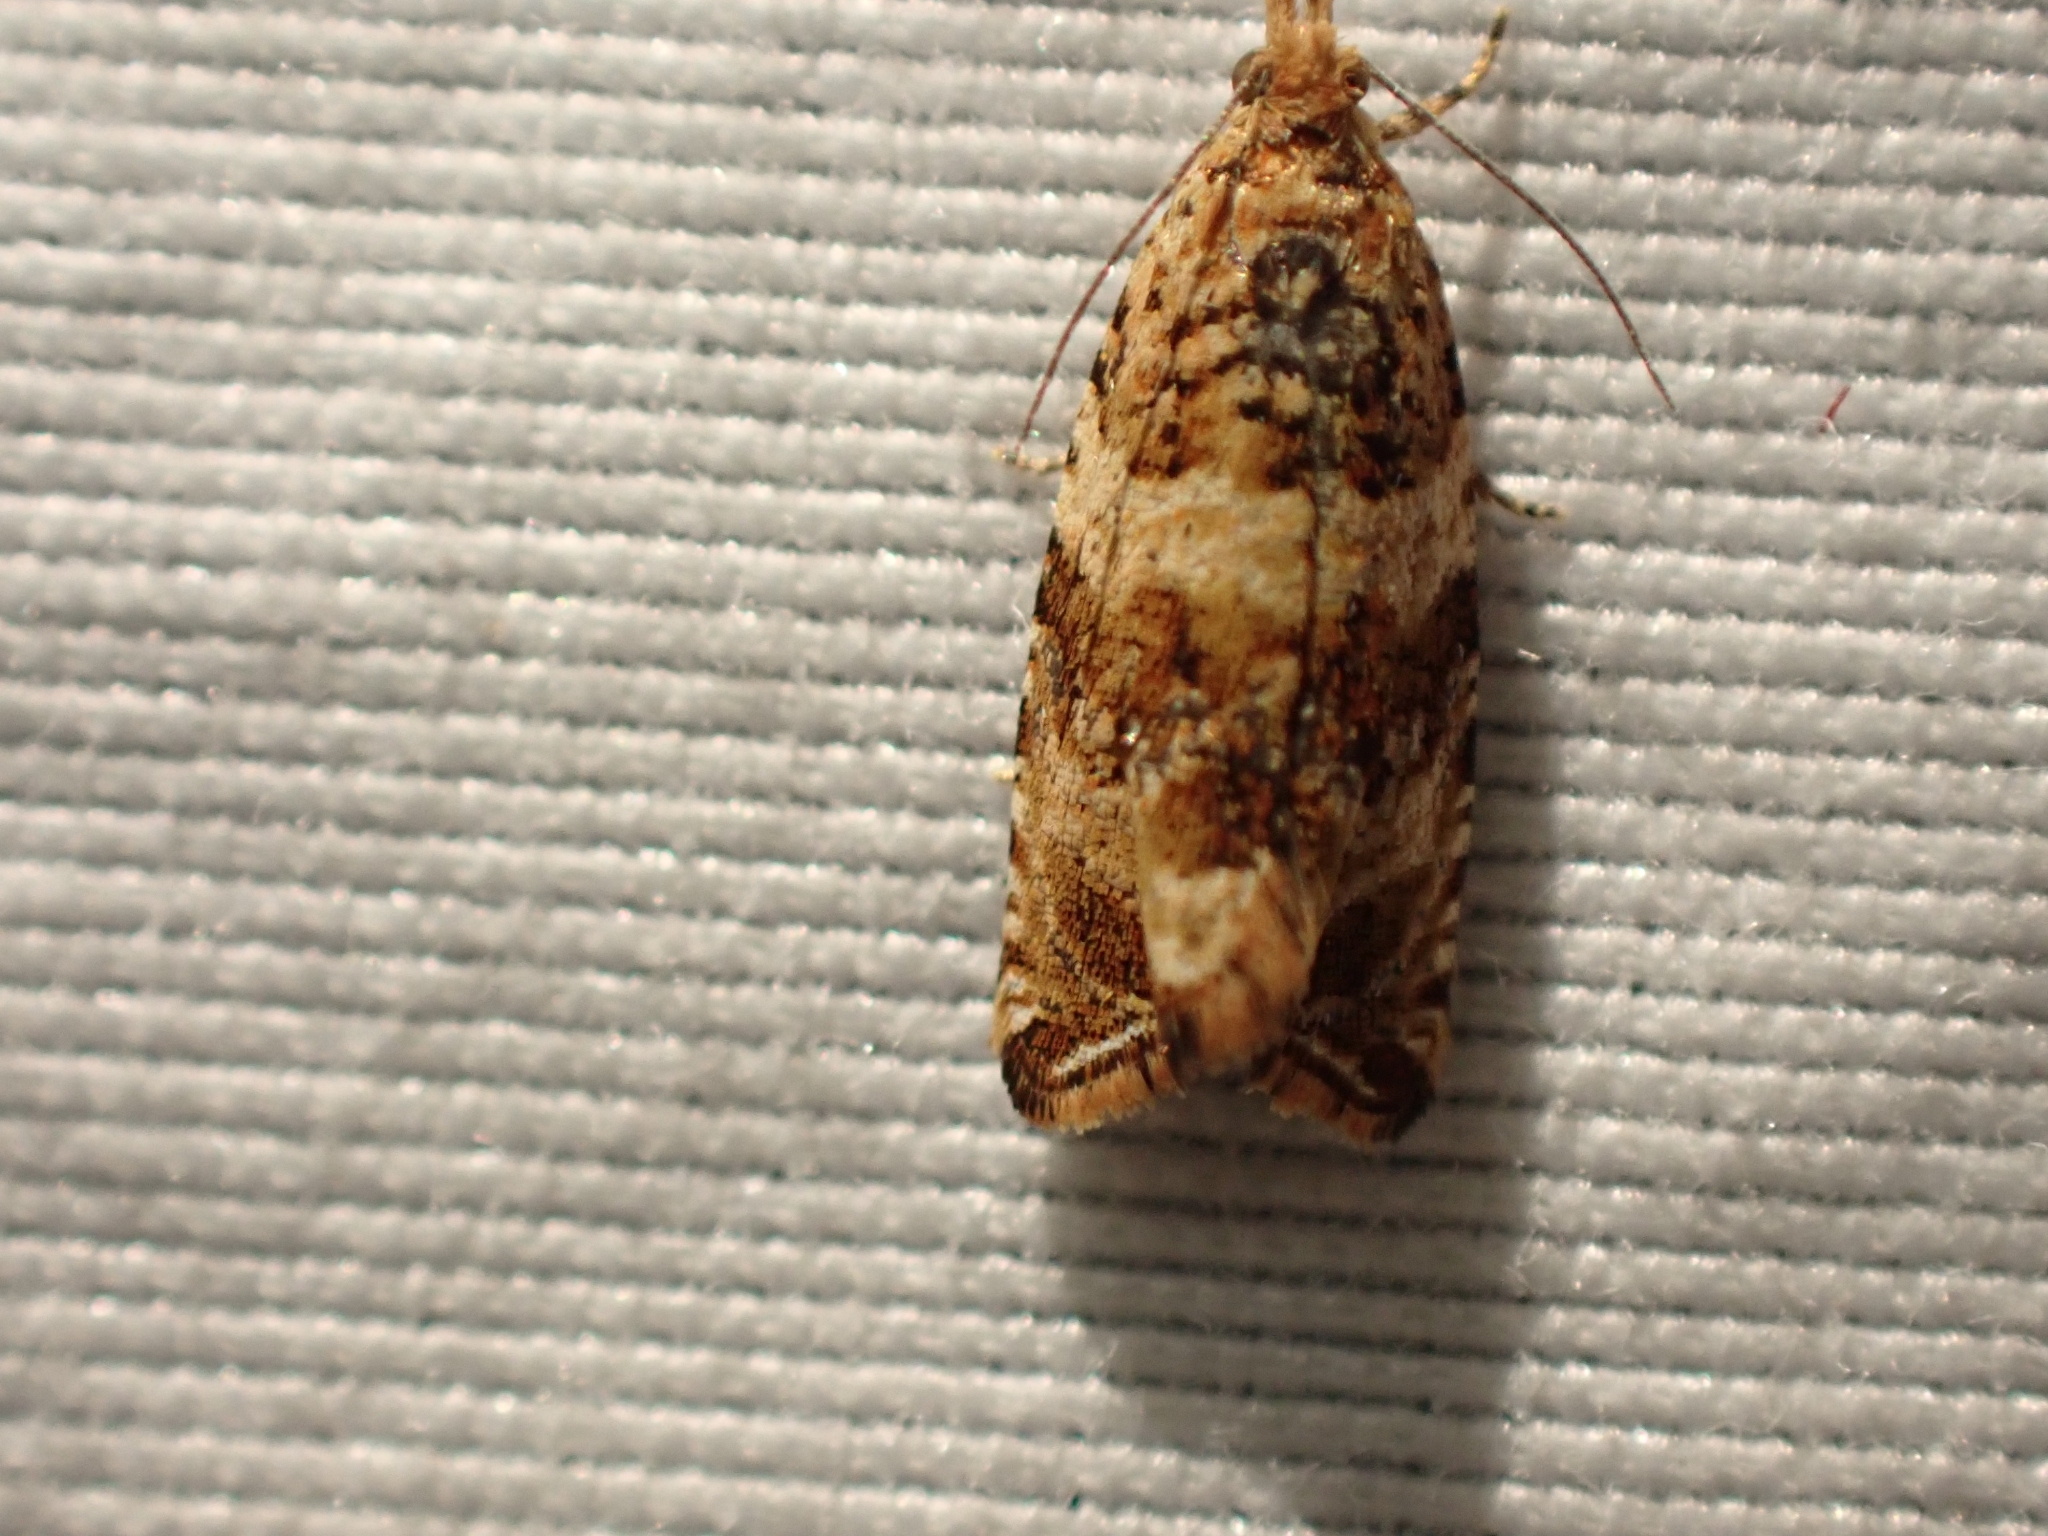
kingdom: Animalia
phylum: Arthropoda
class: Insecta
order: Lepidoptera
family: Tortricidae
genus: Celypha
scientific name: Celypha cespitana
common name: Thyme marble
